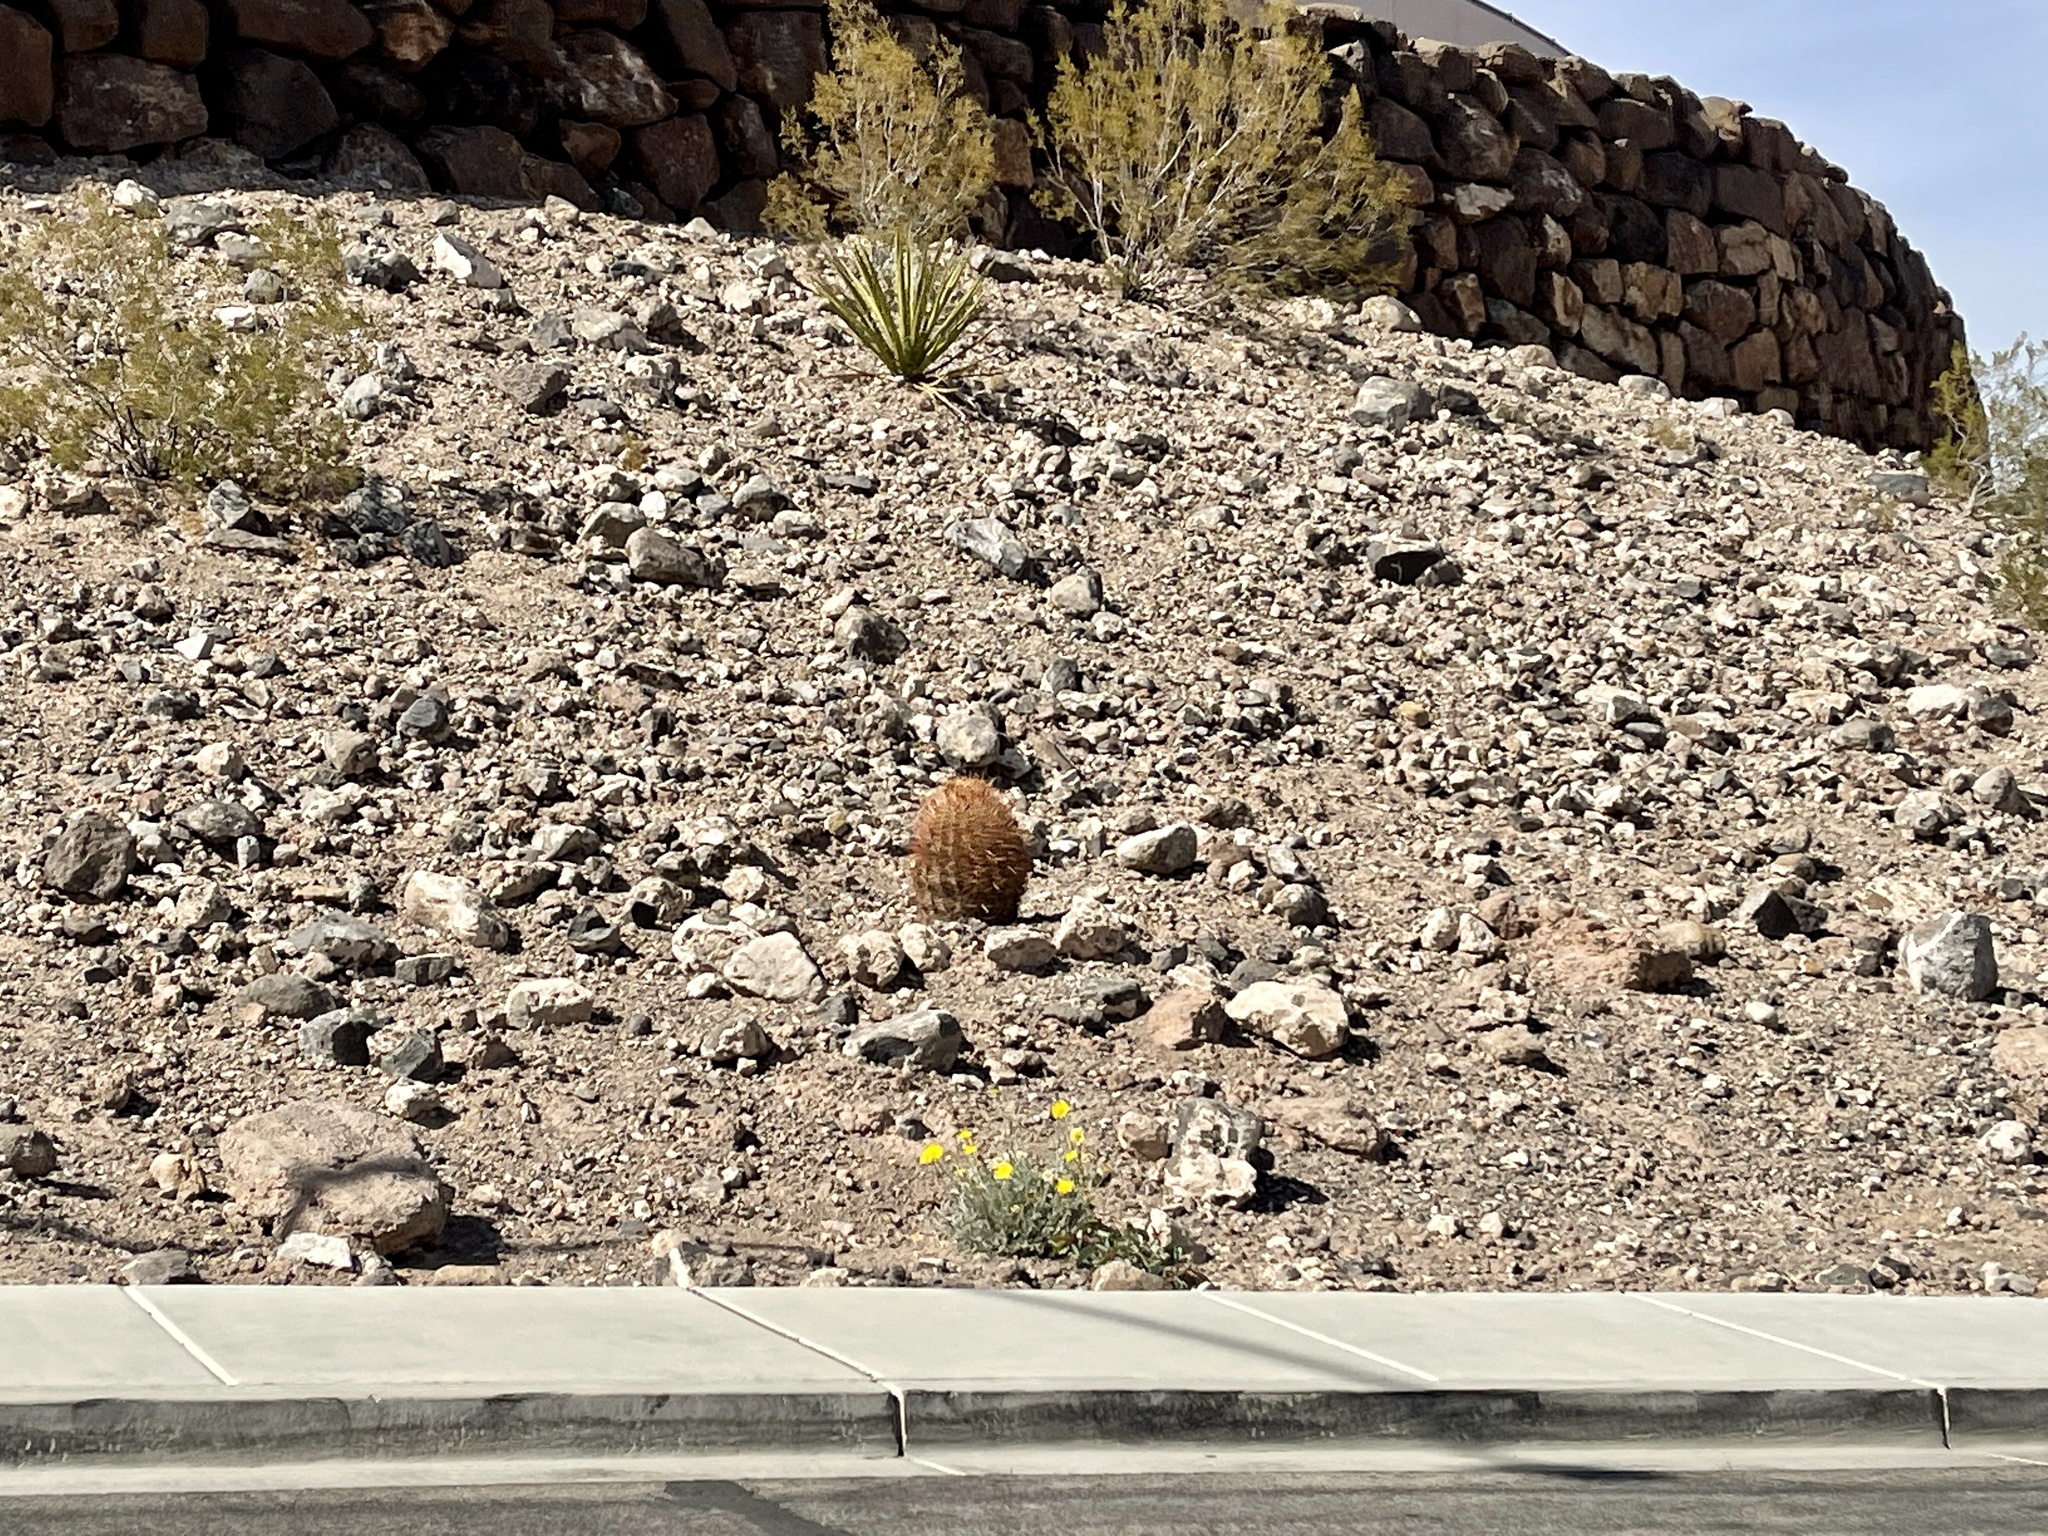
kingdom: Plantae
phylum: Tracheophyta
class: Magnoliopsida
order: Caryophyllales
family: Cactaceae
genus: Ferocactus
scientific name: Ferocactus cylindraceus
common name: California barrel cactus
